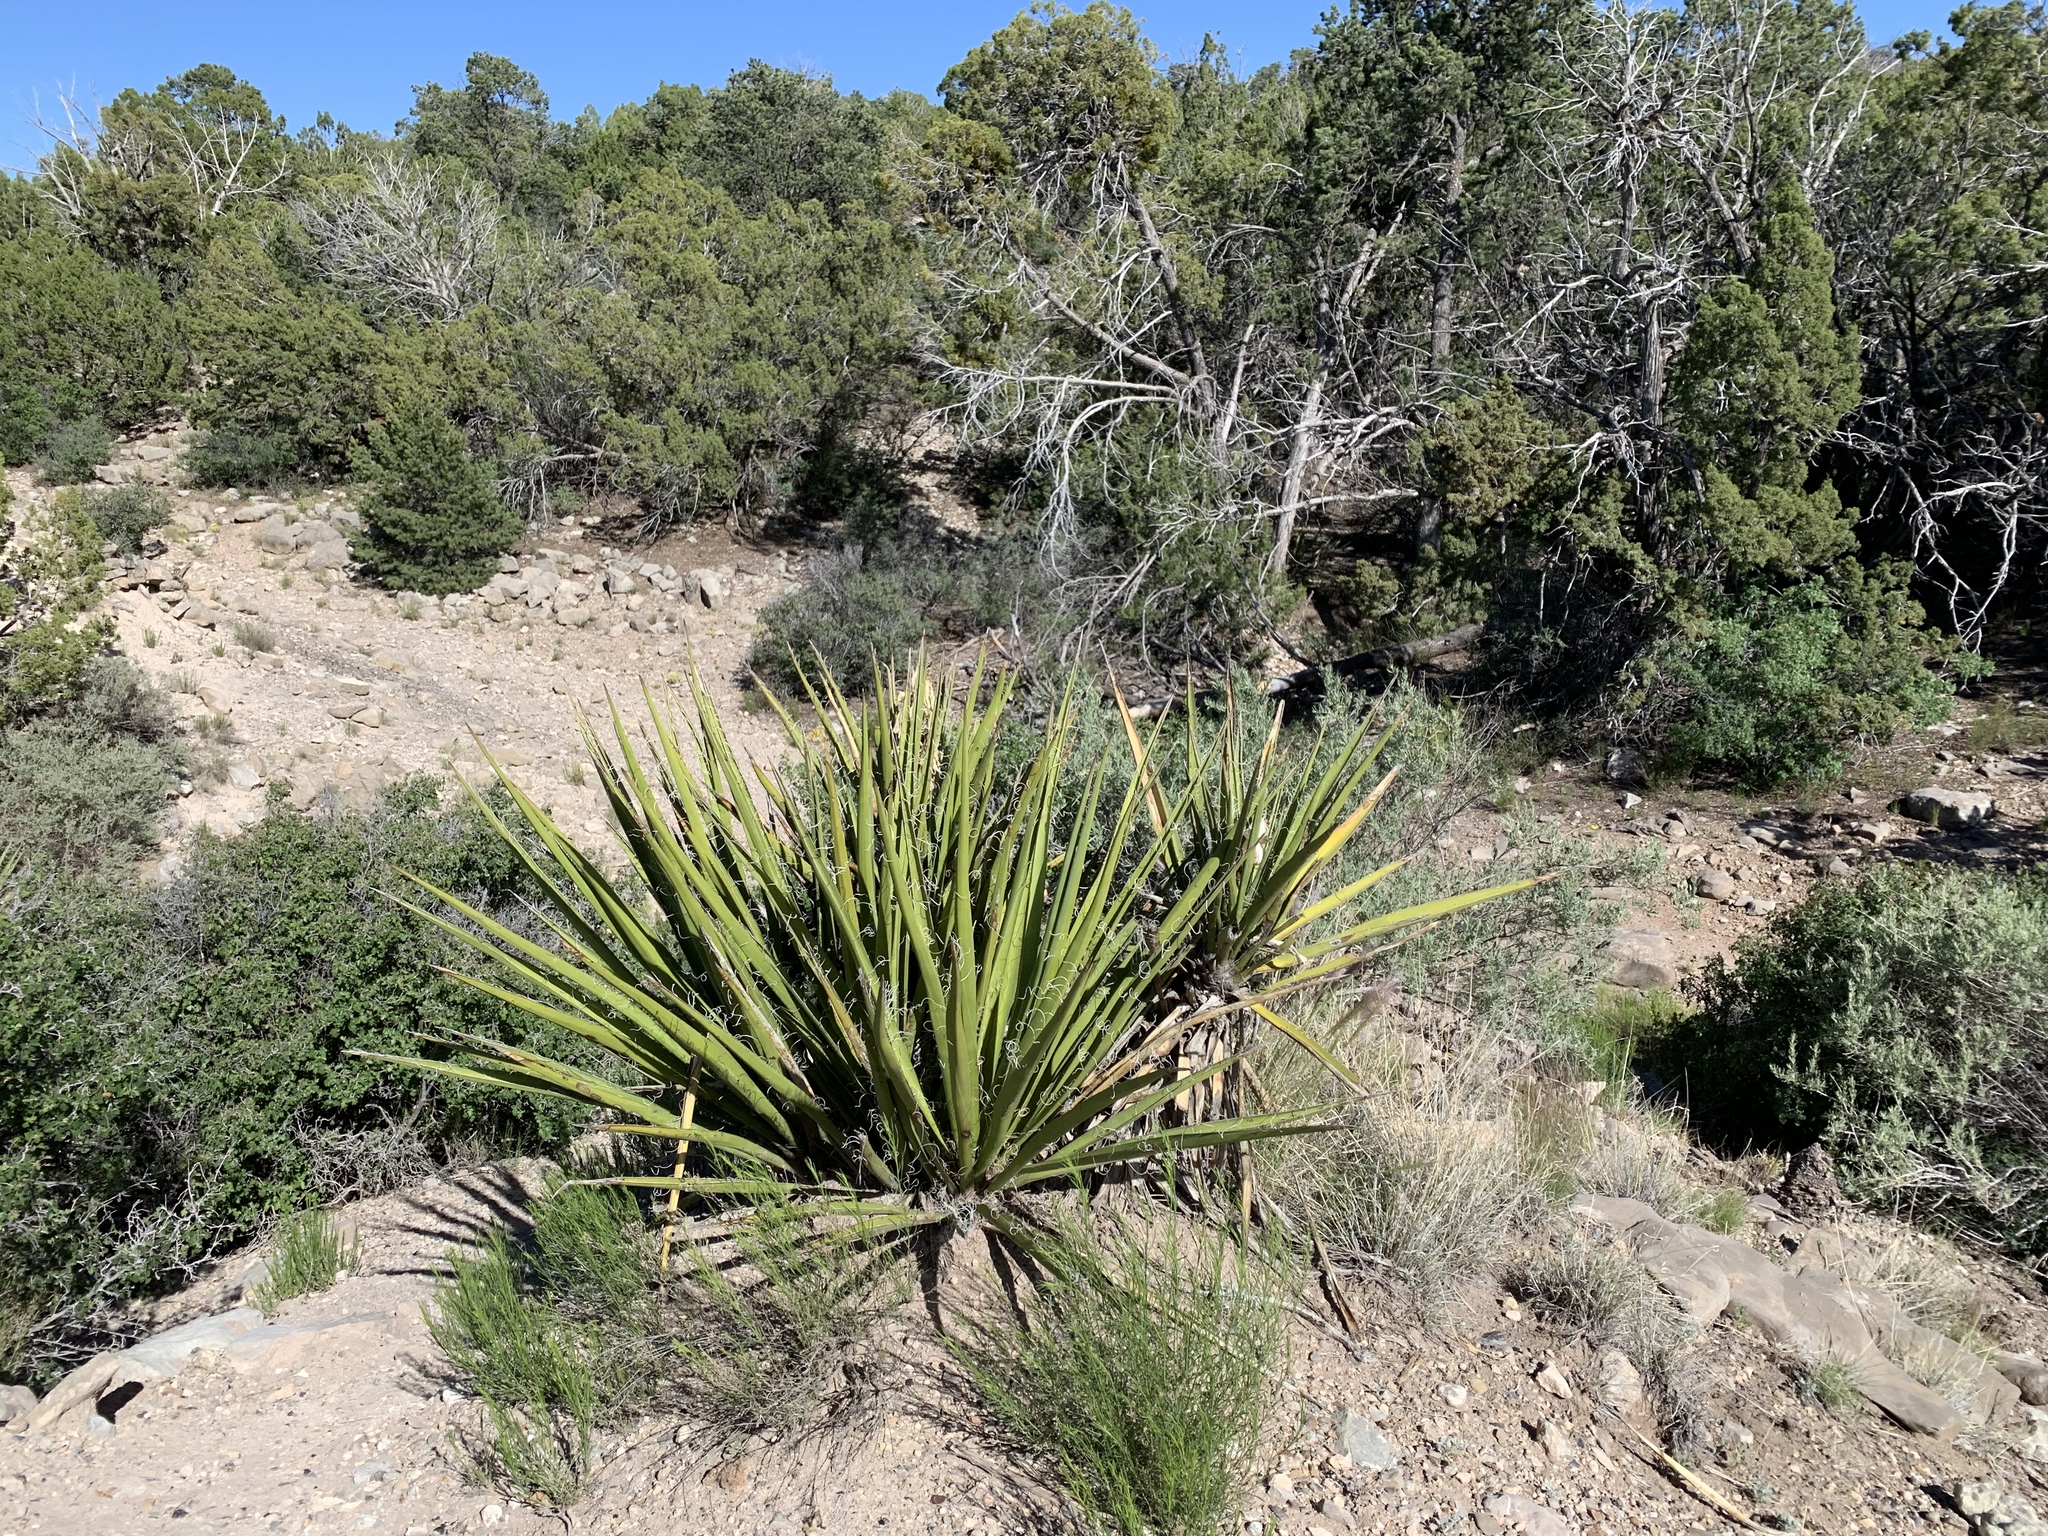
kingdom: Plantae
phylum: Tracheophyta
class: Liliopsida
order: Asparagales
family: Asparagaceae
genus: Yucca
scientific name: Yucca baccata
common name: Banana yucca
